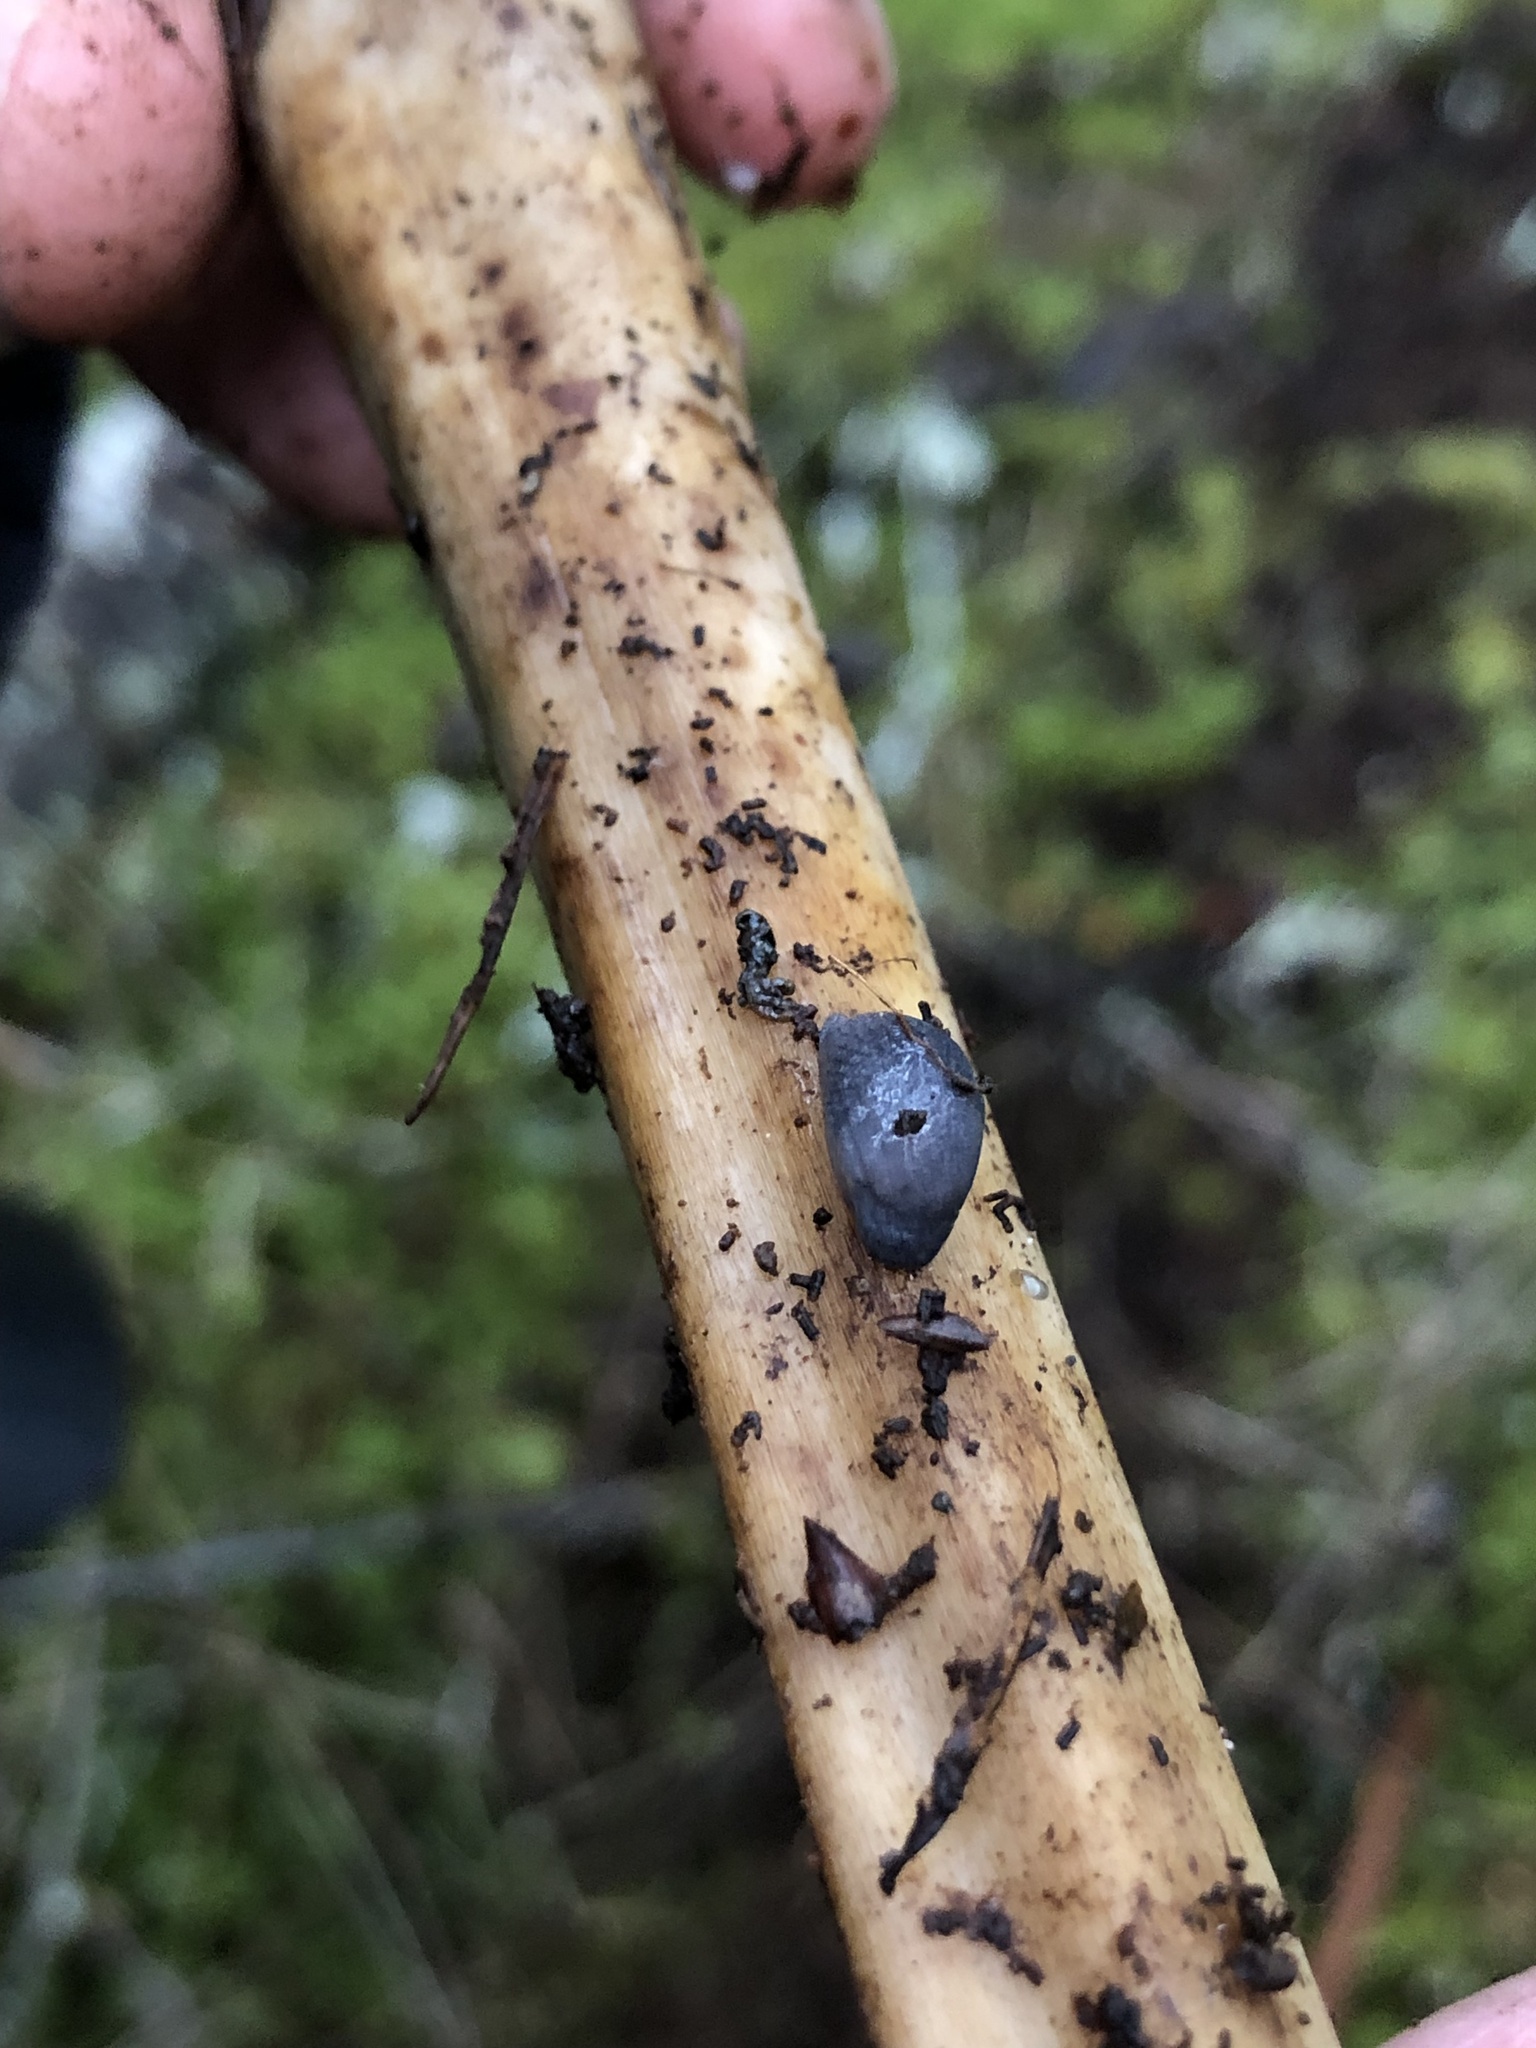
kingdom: Animalia
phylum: Mollusca
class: Gastropoda
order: Stylommatophora
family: Ariolimacidae
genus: Prophysaon
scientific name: Prophysaon coeruleum
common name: Blue-gray taildropper
